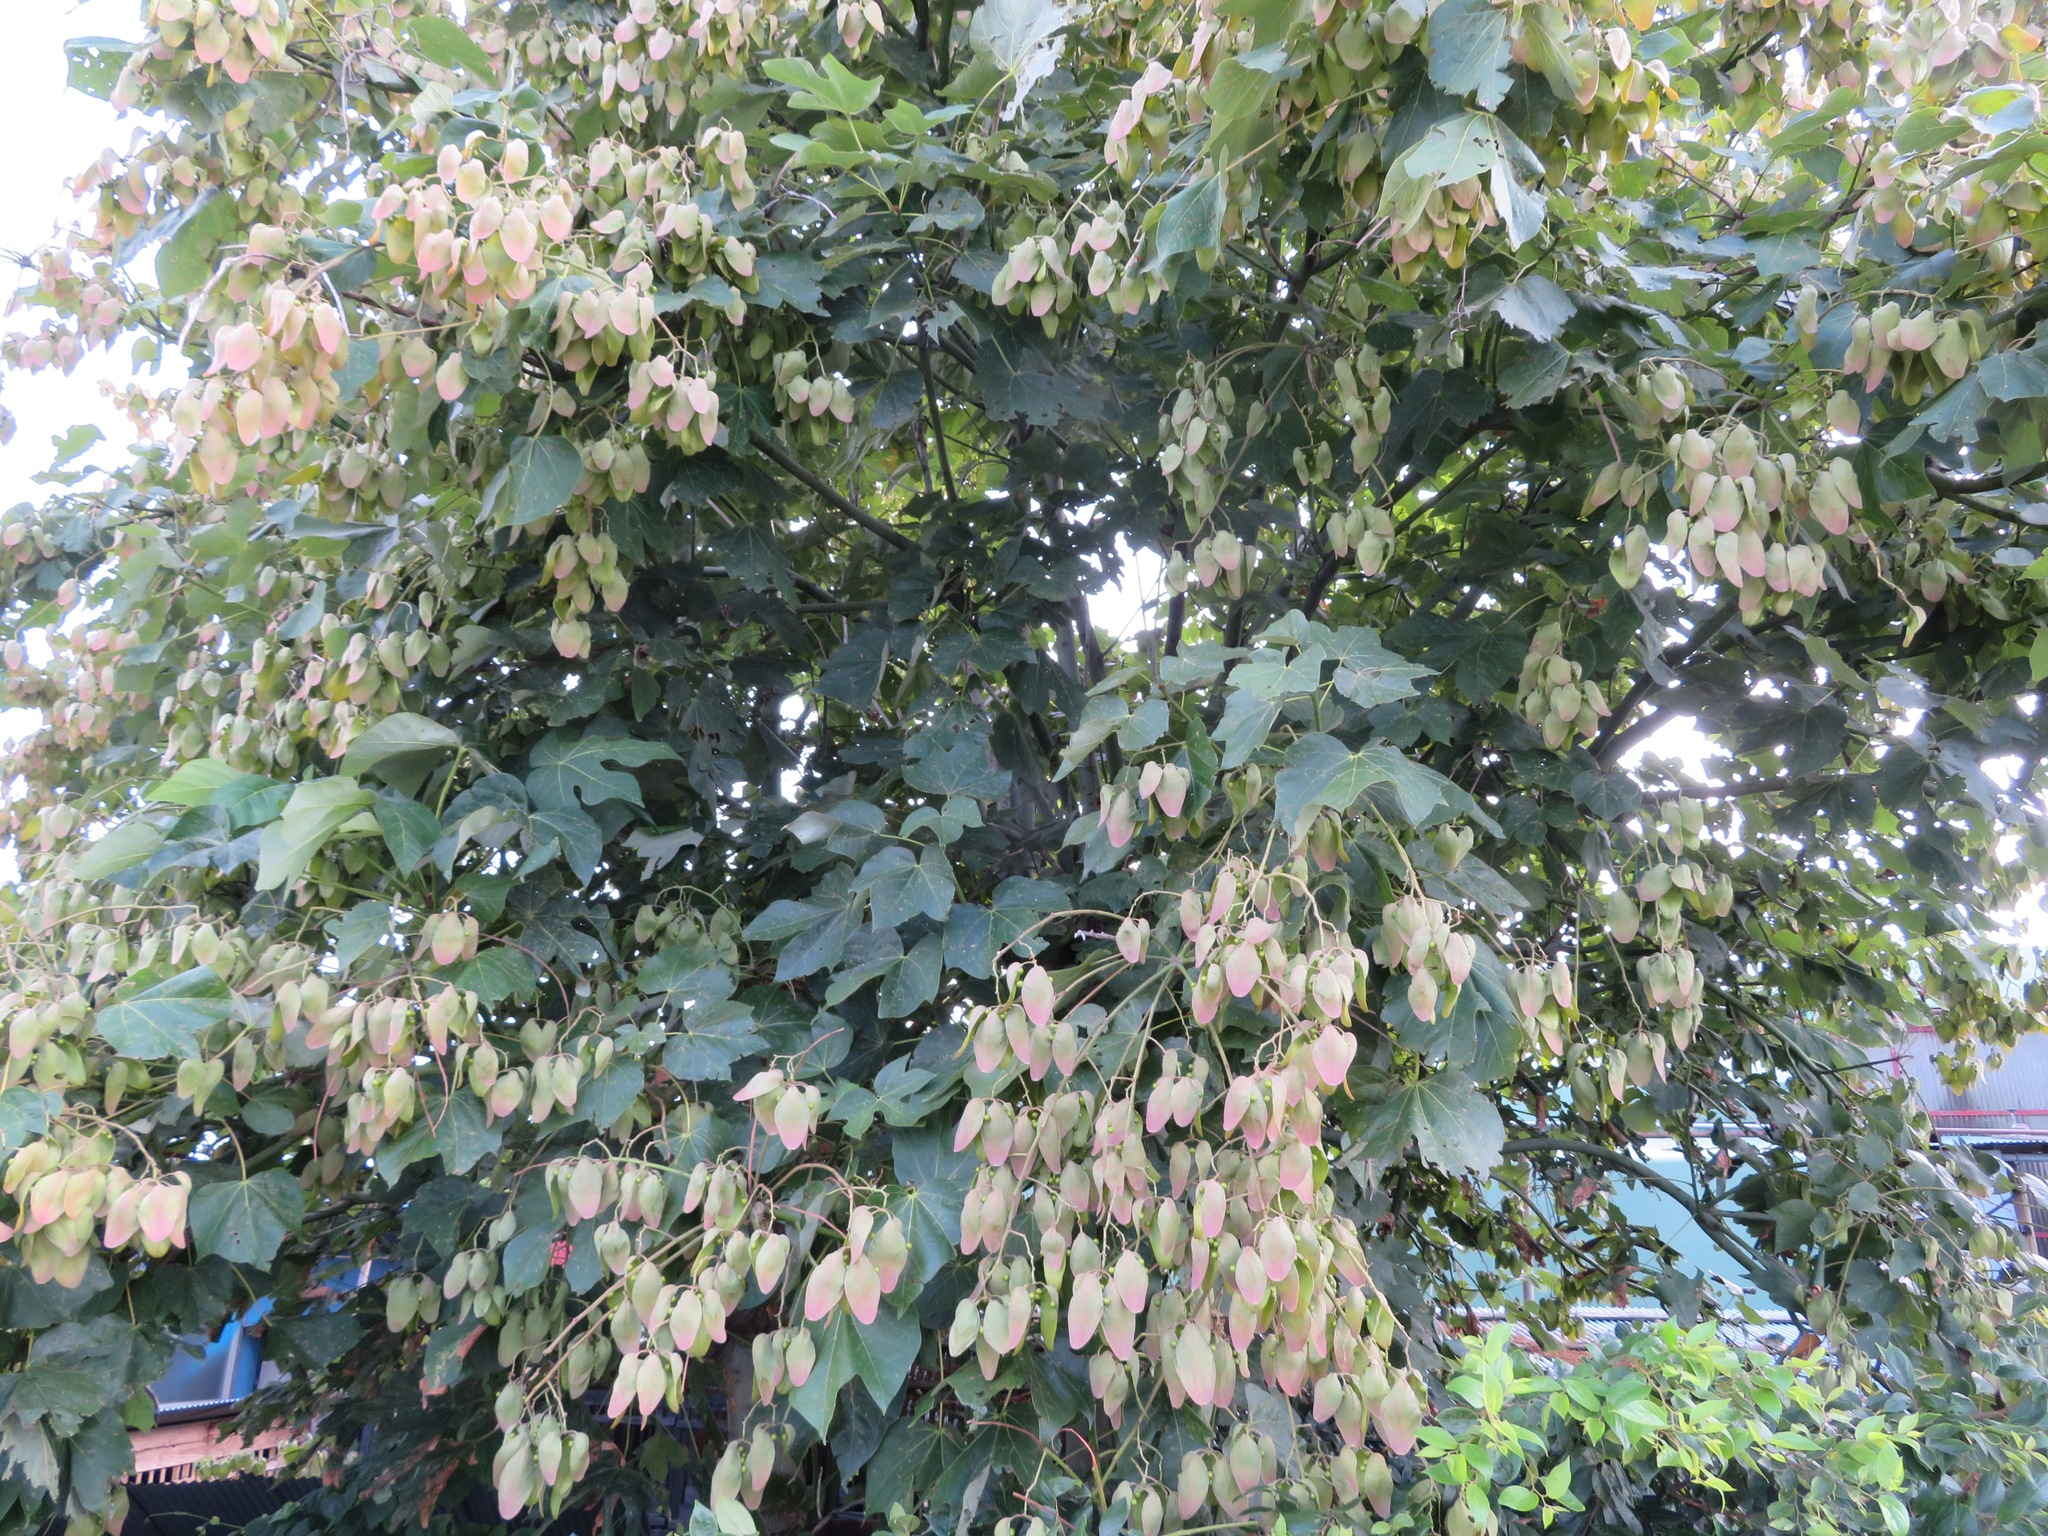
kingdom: Plantae
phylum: Tracheophyta
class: Magnoliopsida
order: Malvales
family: Malvaceae
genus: Firmiana
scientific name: Firmiana simplex
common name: Chinese parasoltree
